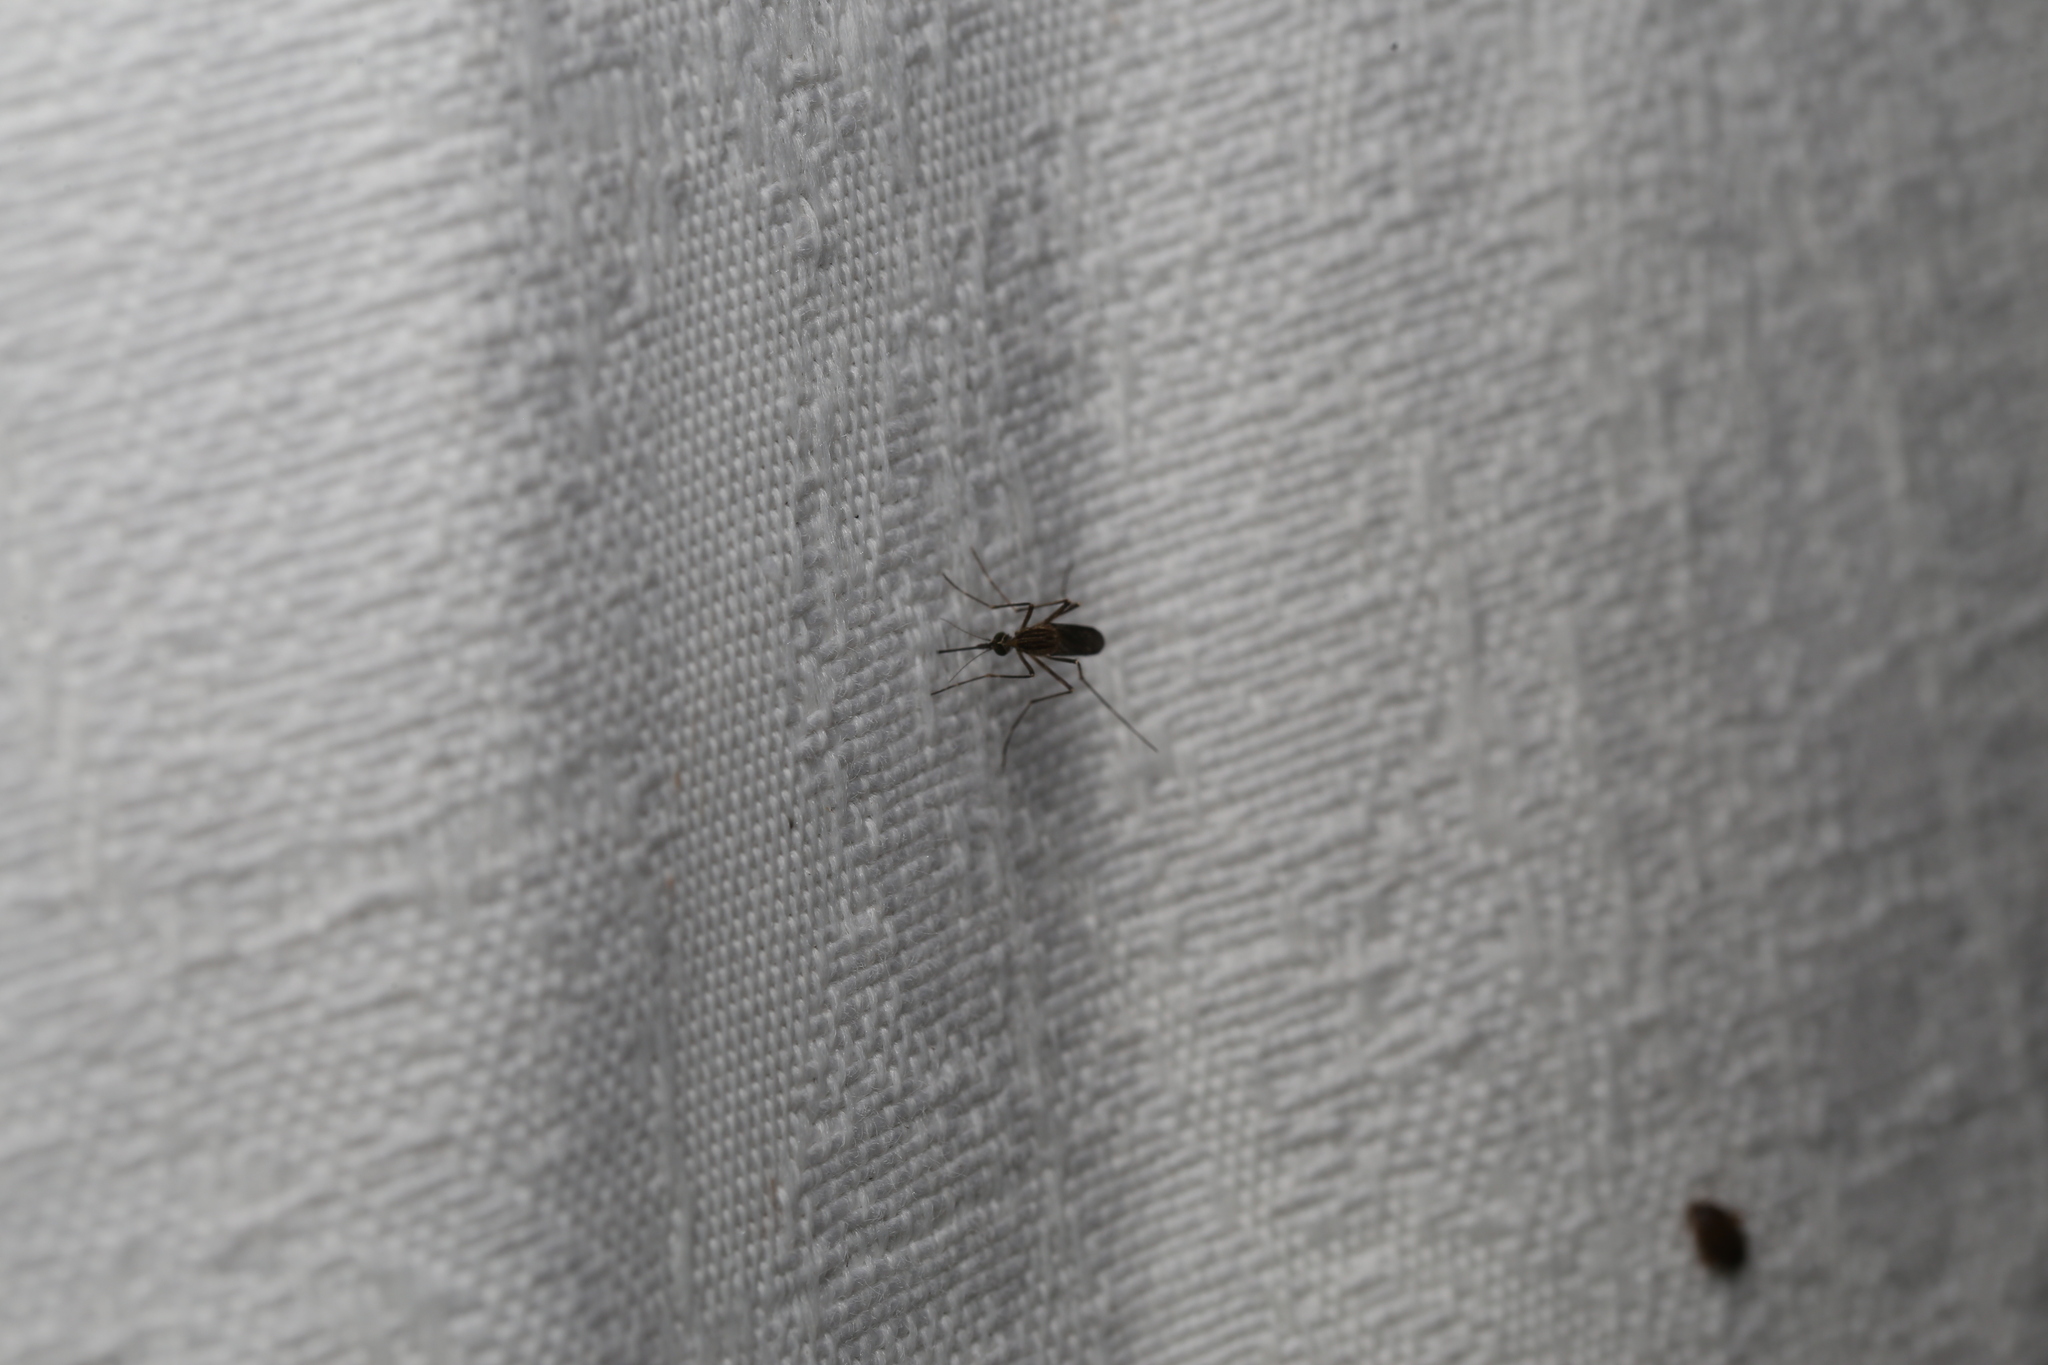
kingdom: Animalia
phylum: Arthropoda
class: Insecta
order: Diptera
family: Culicidae
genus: Coquillettidia
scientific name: Coquillettidia linealis
